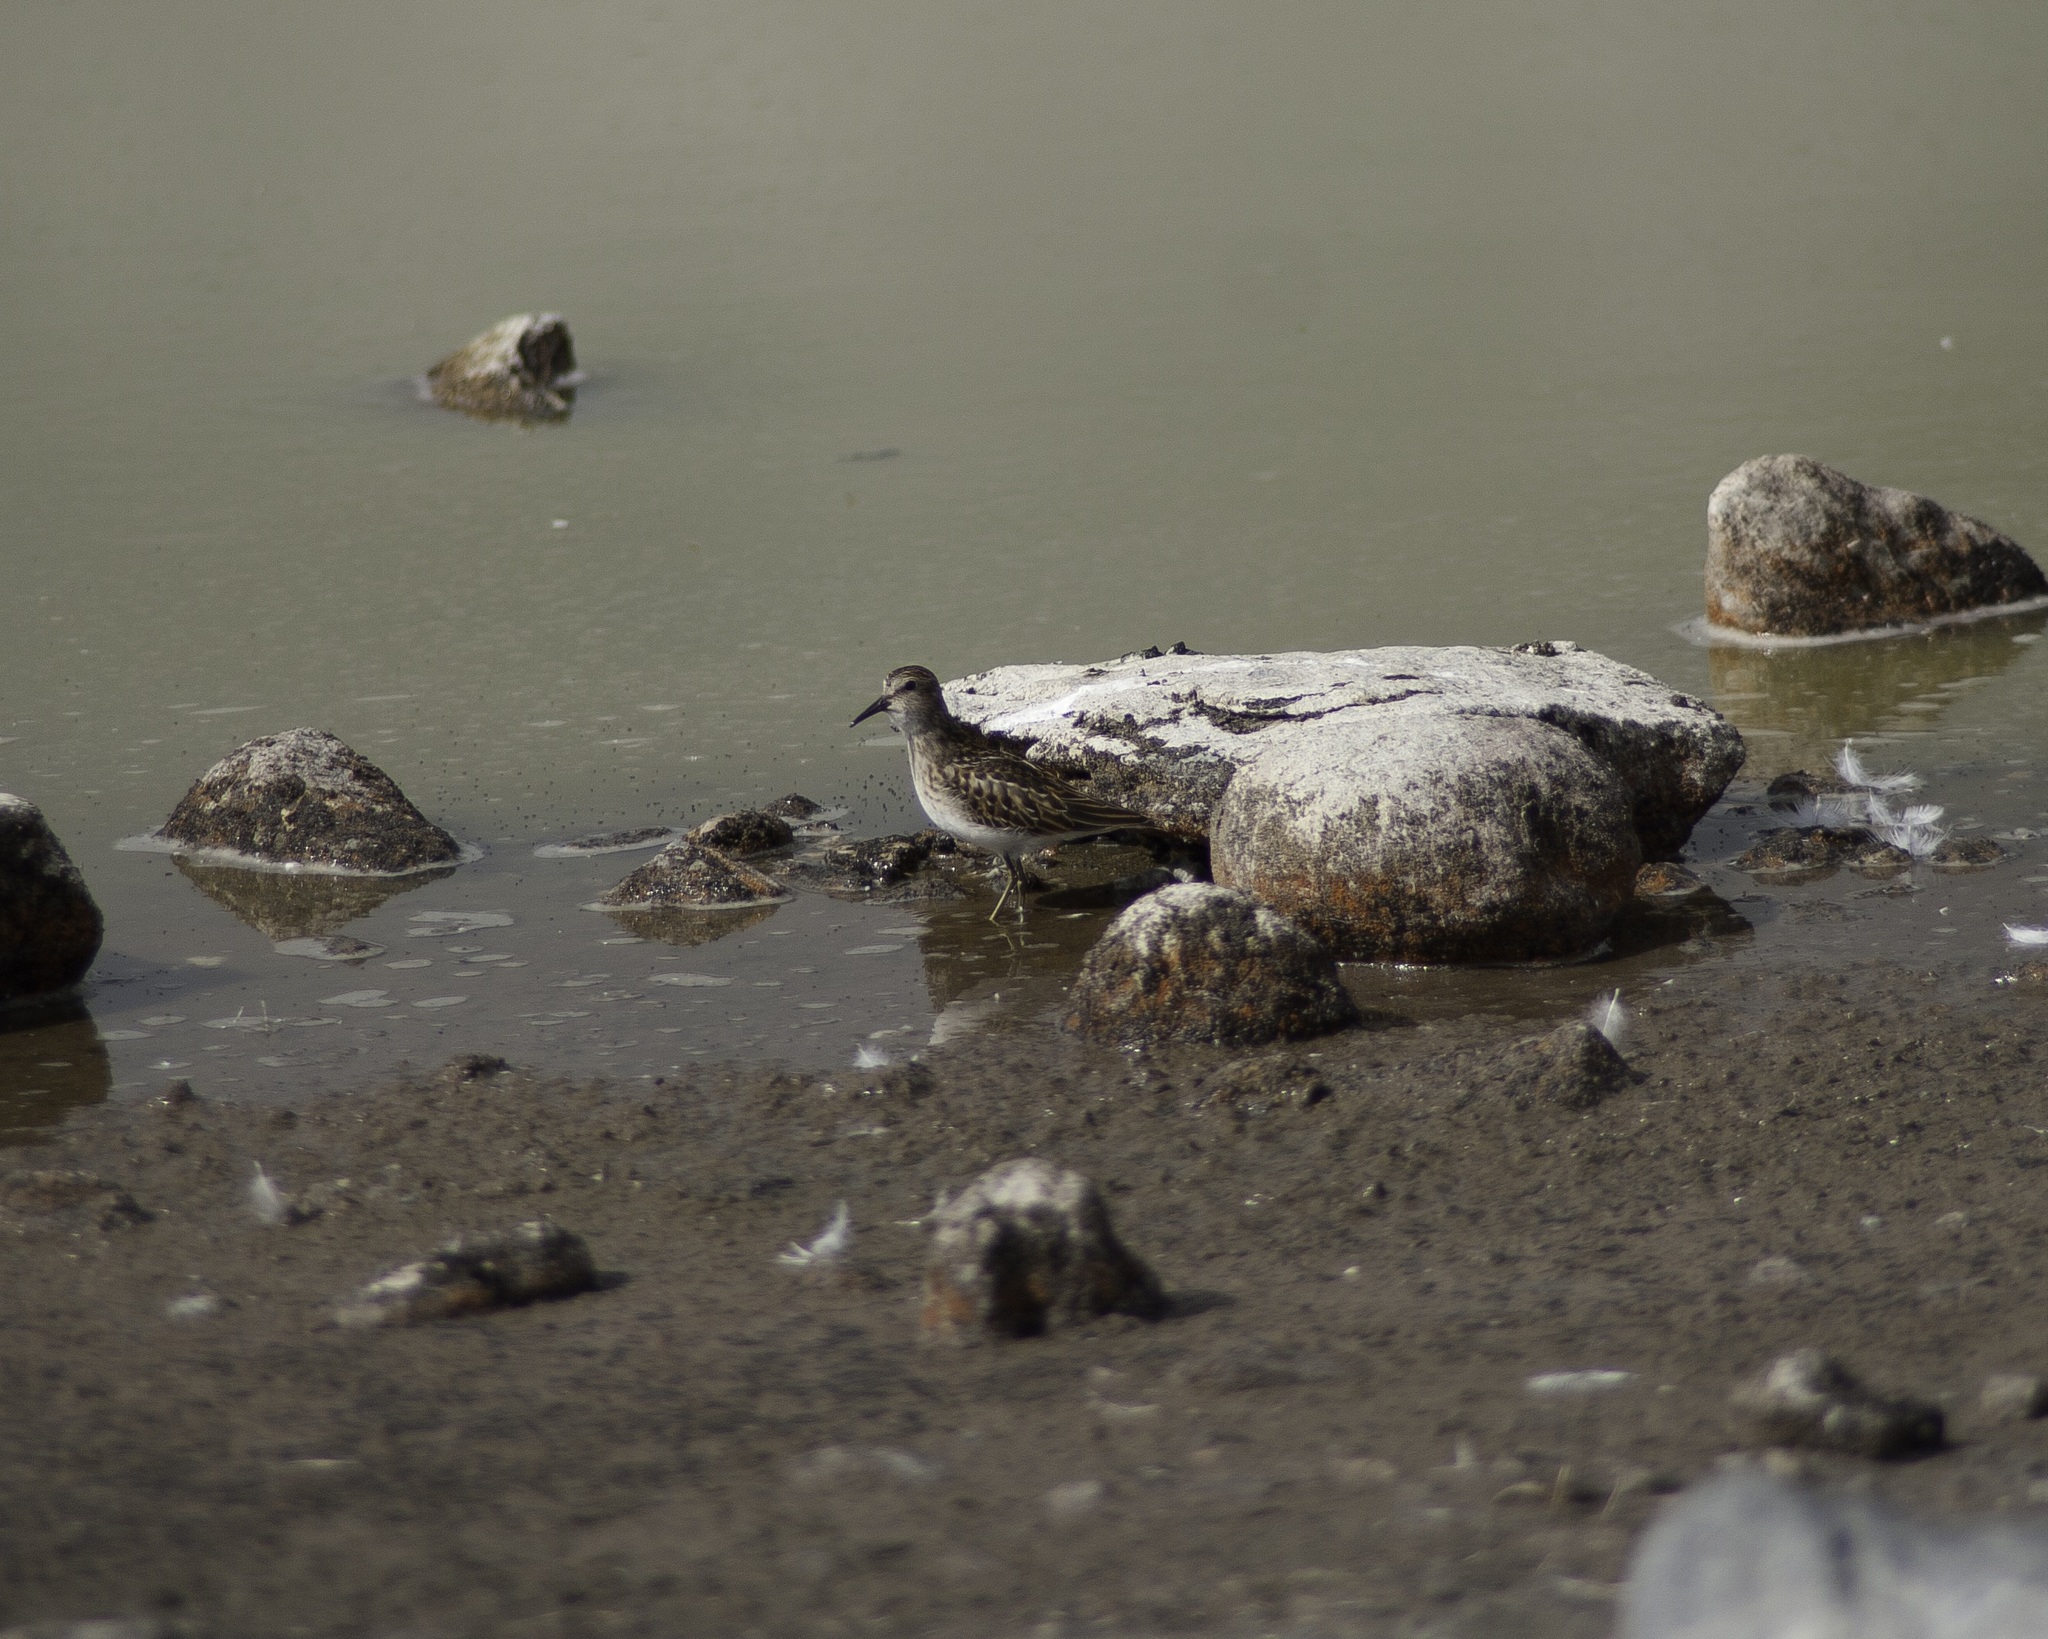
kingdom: Animalia
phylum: Chordata
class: Aves
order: Charadriiformes
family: Scolopacidae
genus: Calidris
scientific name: Calidris minutilla
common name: Least sandpiper
